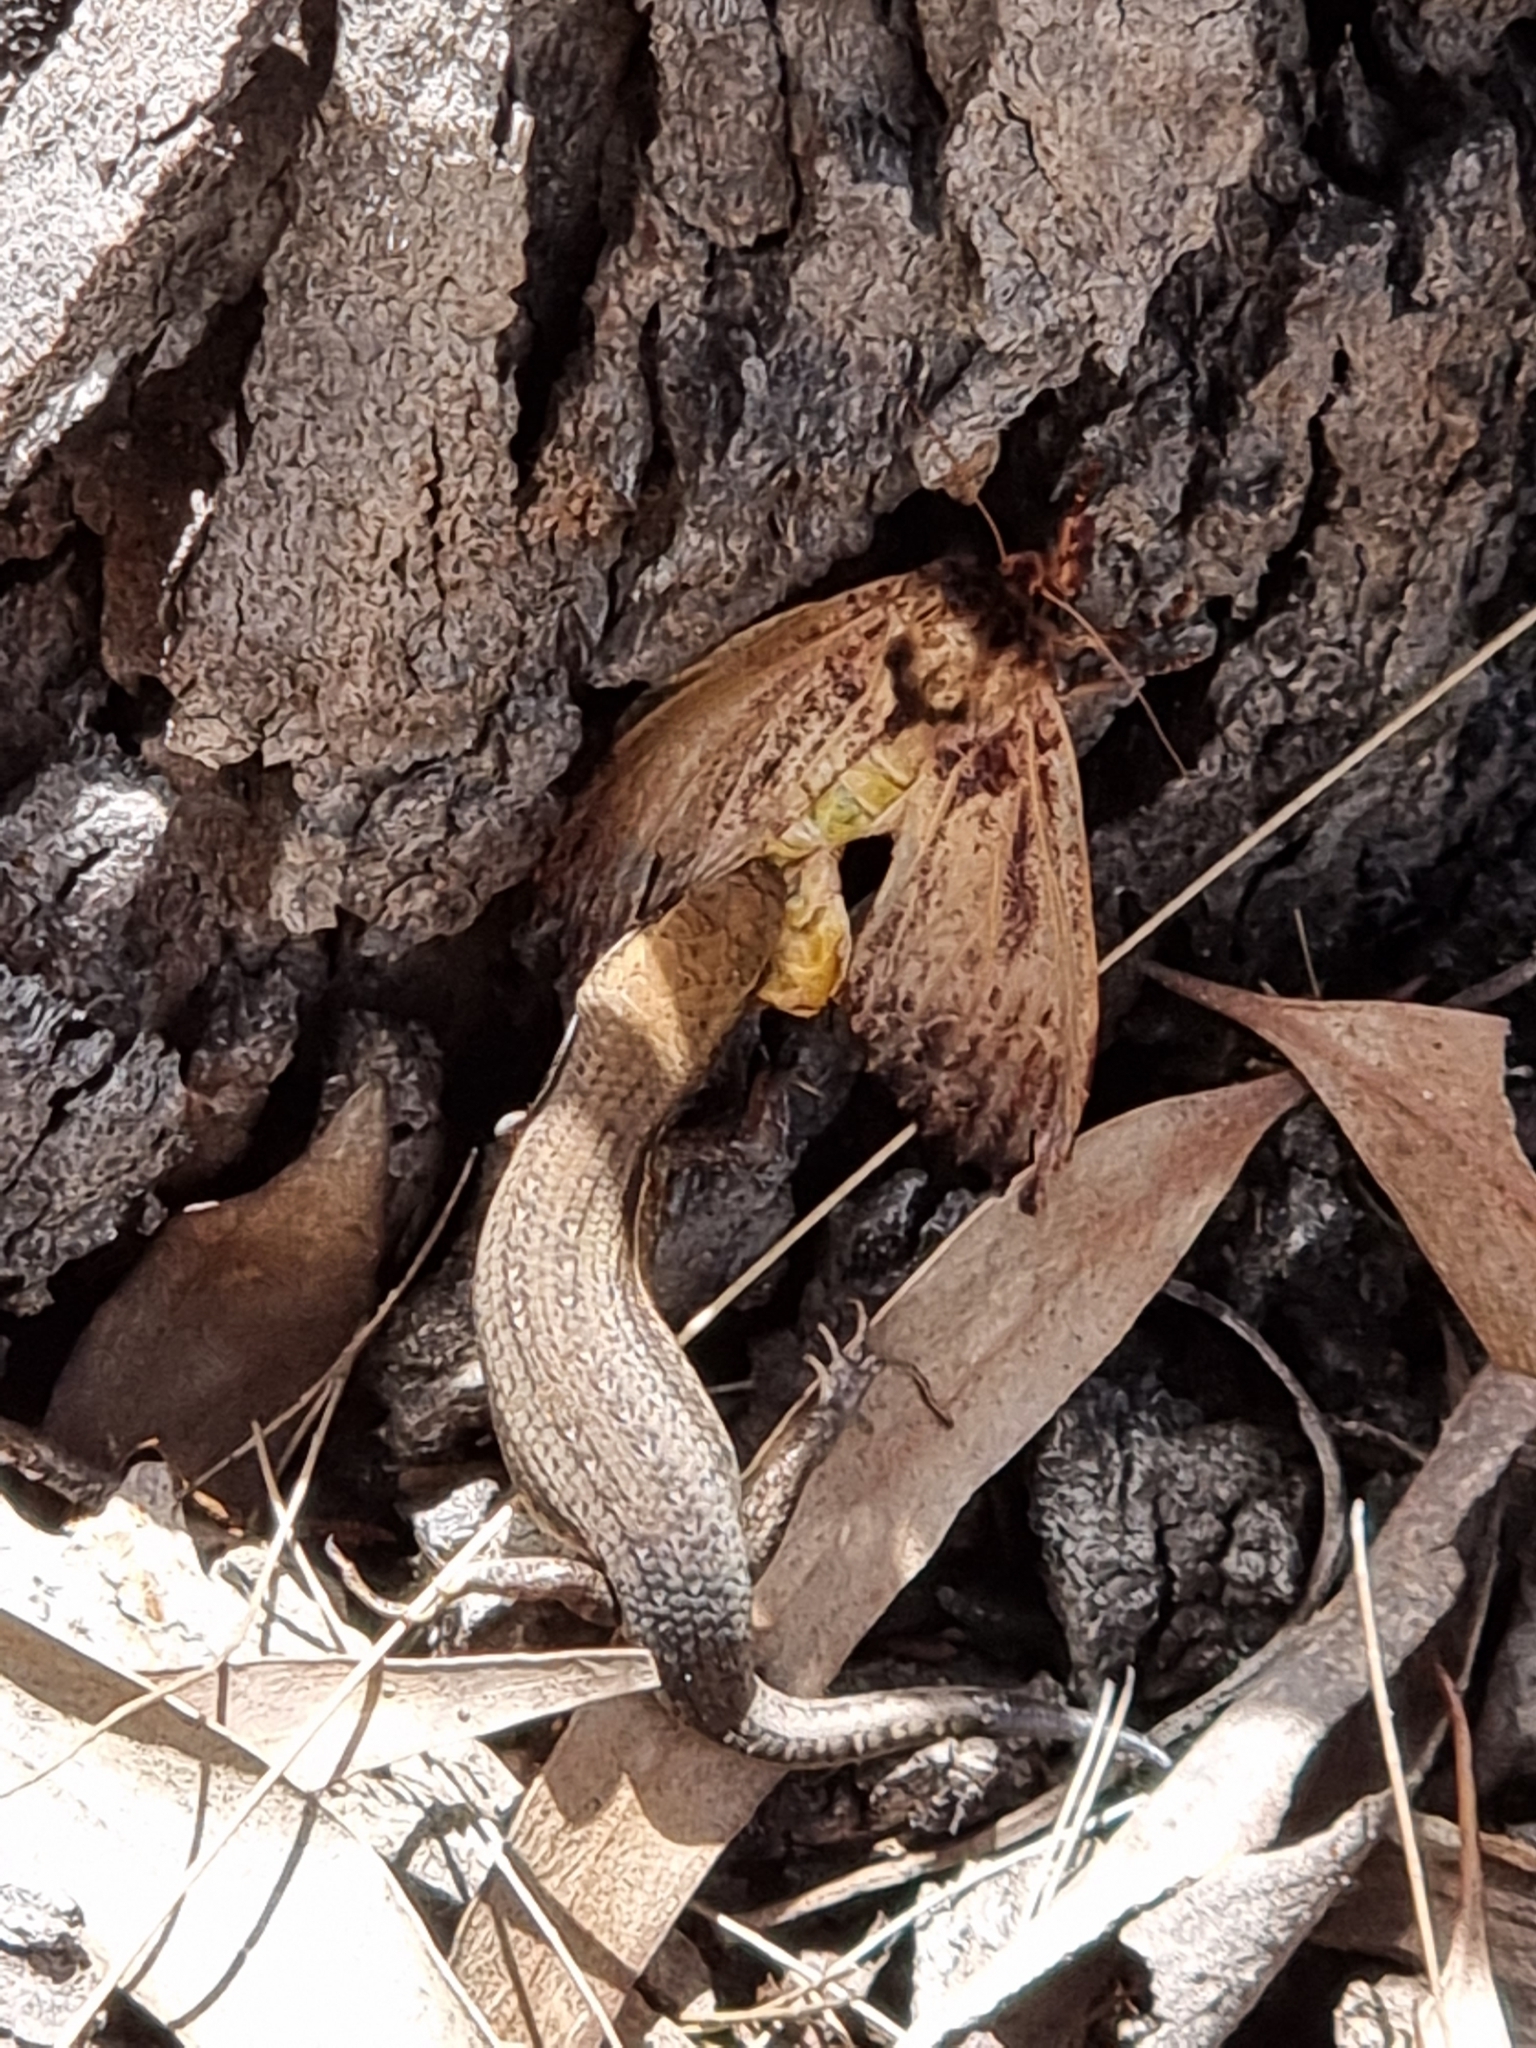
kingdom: Animalia
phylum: Chordata
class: Squamata
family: Scincidae
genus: Carlia
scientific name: Carlia vivax
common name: Tussock rainbow-skink
